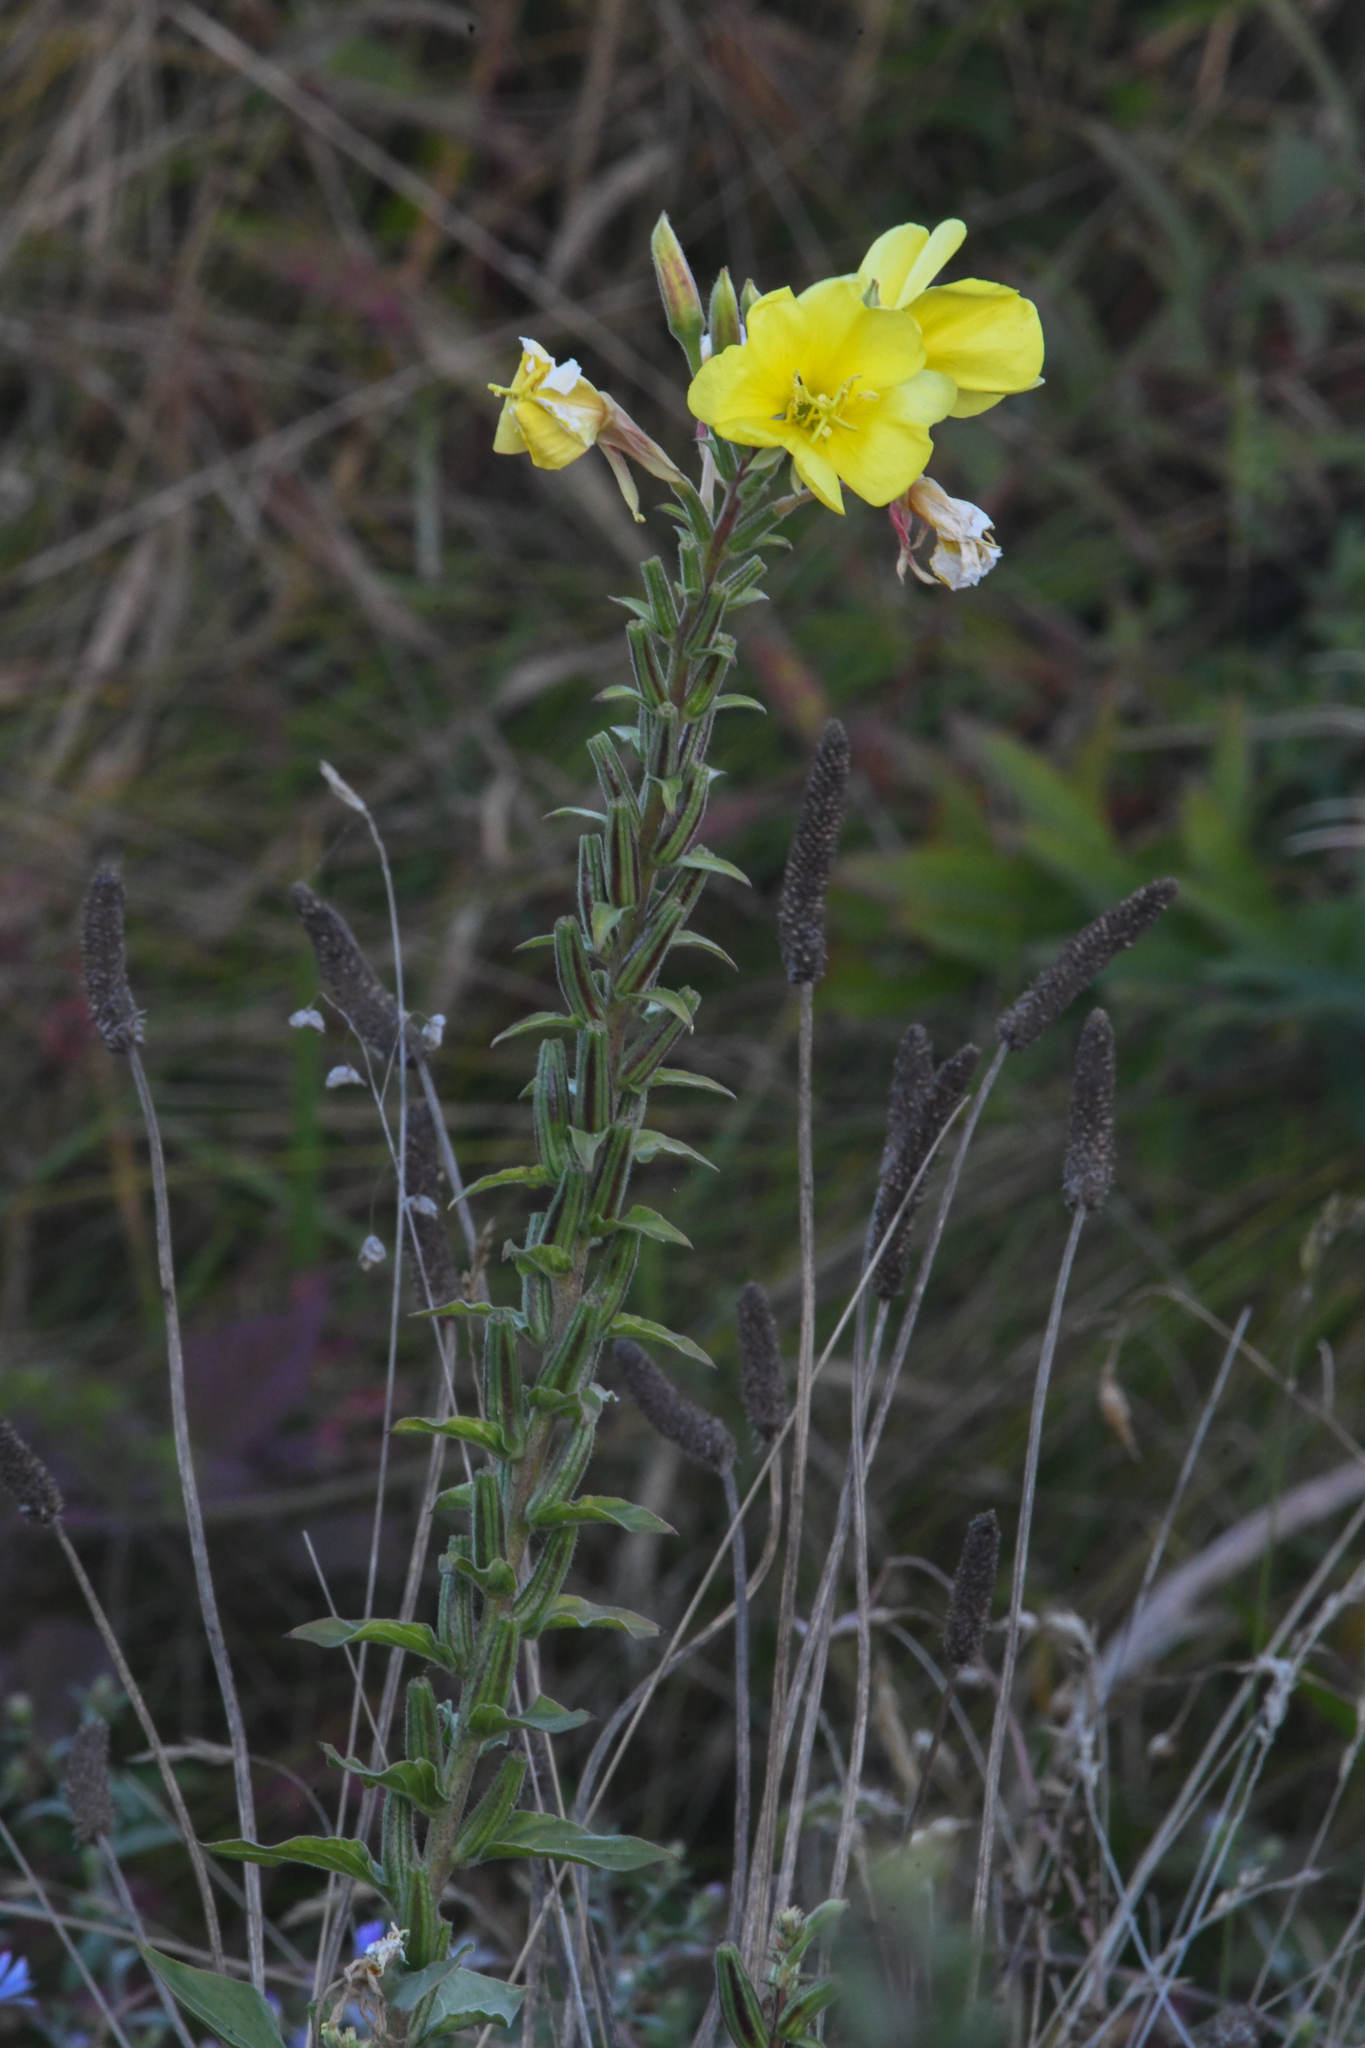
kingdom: Plantae
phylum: Tracheophyta
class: Magnoliopsida
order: Myrtales
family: Onagraceae
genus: Oenothera
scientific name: Oenothera elata
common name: Hooker's evening-primrose
